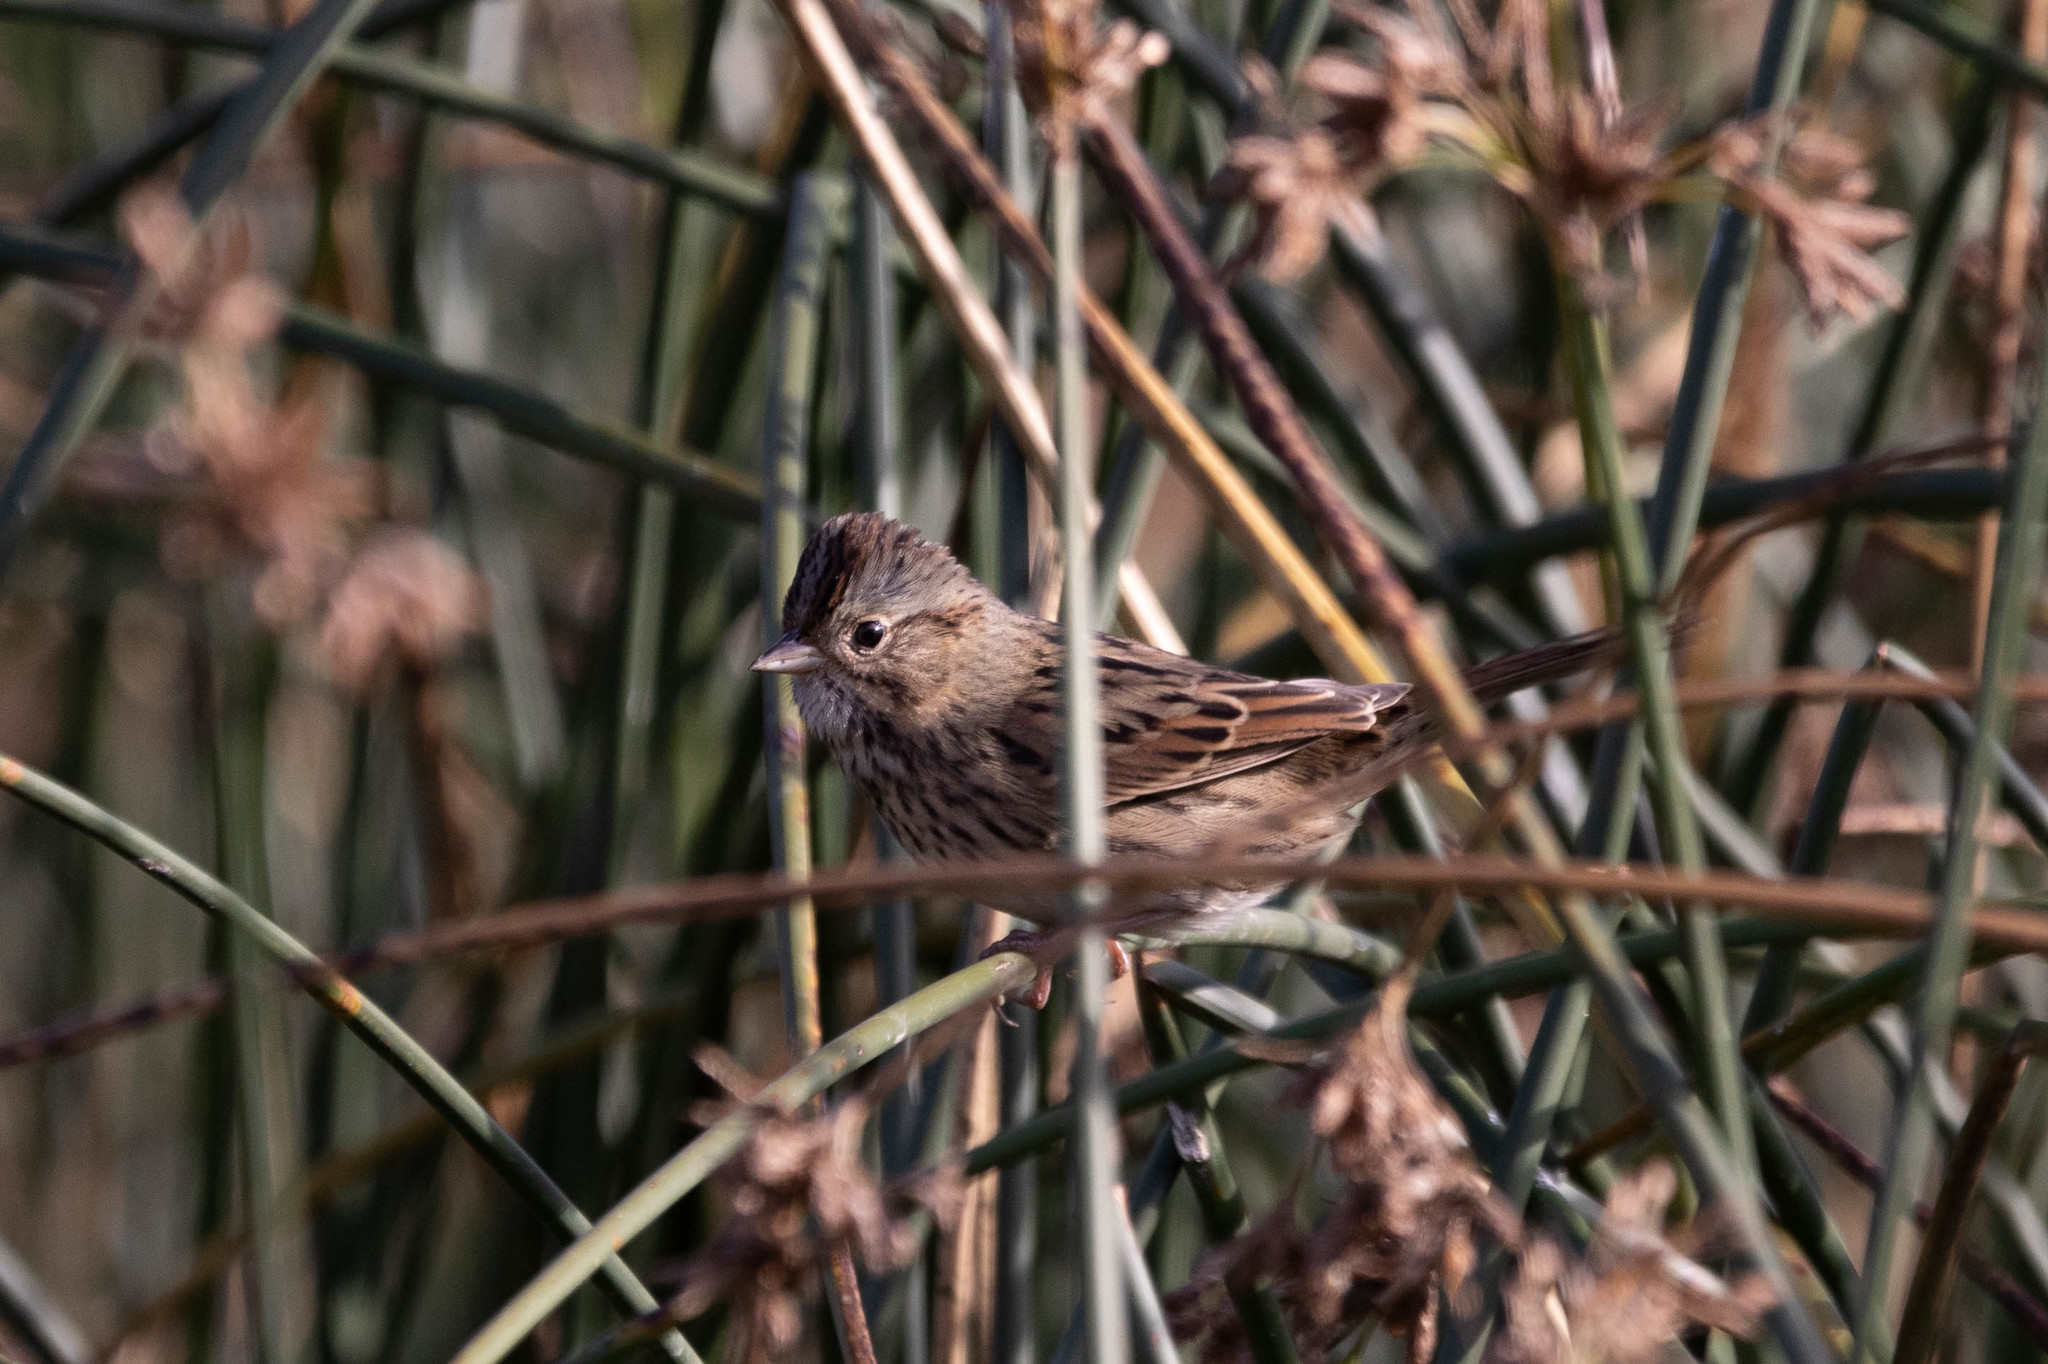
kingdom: Animalia
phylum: Chordata
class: Aves
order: Passeriformes
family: Passerellidae
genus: Melospiza
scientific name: Melospiza lincolnii
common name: Lincoln's sparrow
